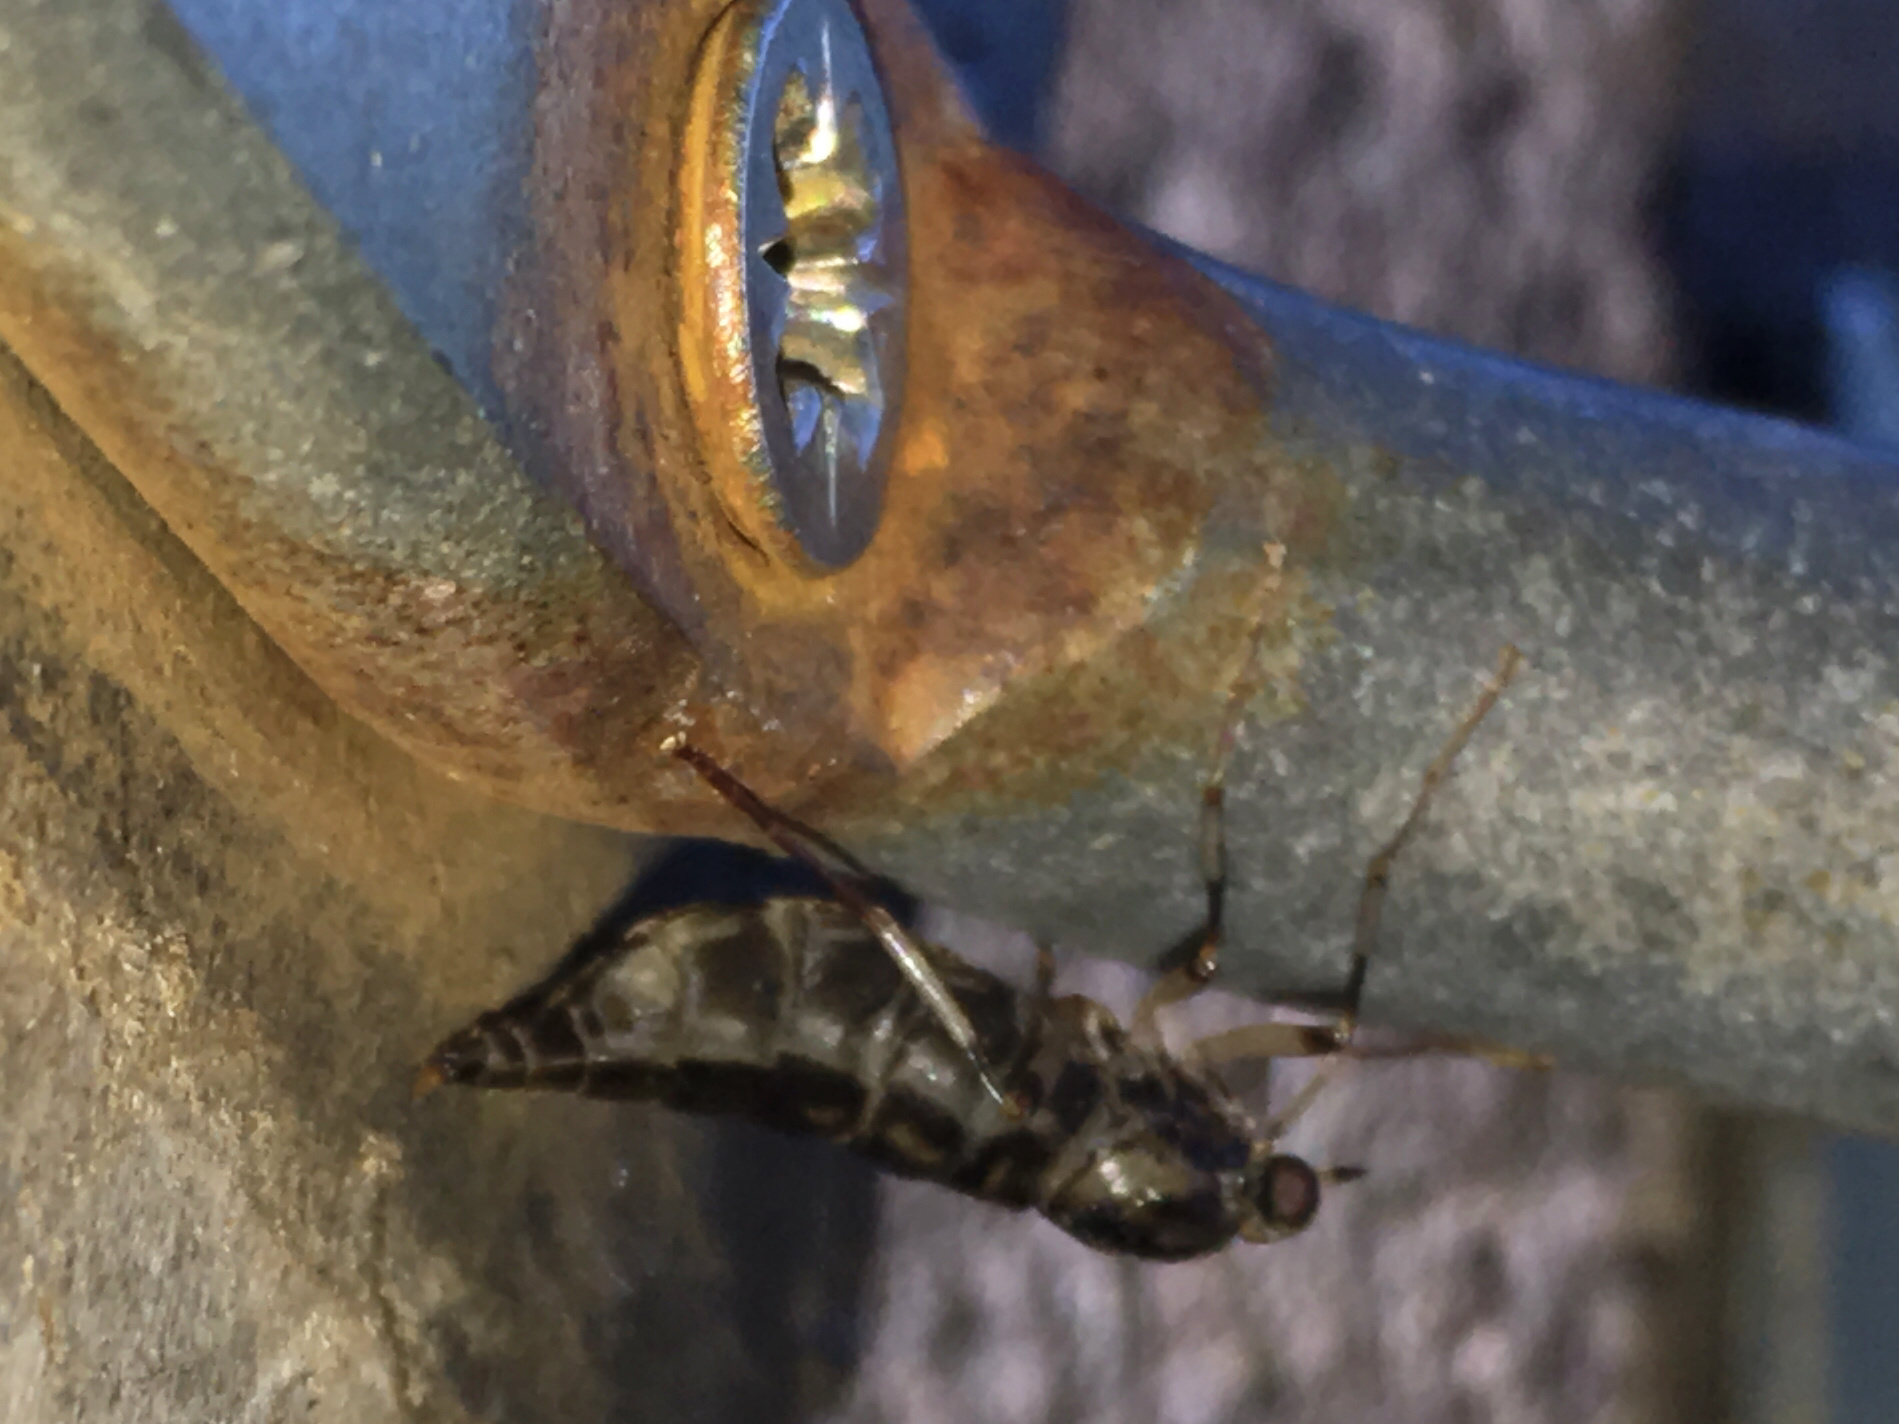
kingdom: Animalia
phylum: Arthropoda
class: Insecta
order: Diptera
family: Stratiomyidae
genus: Boreoides
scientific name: Boreoides tasmaniensis
